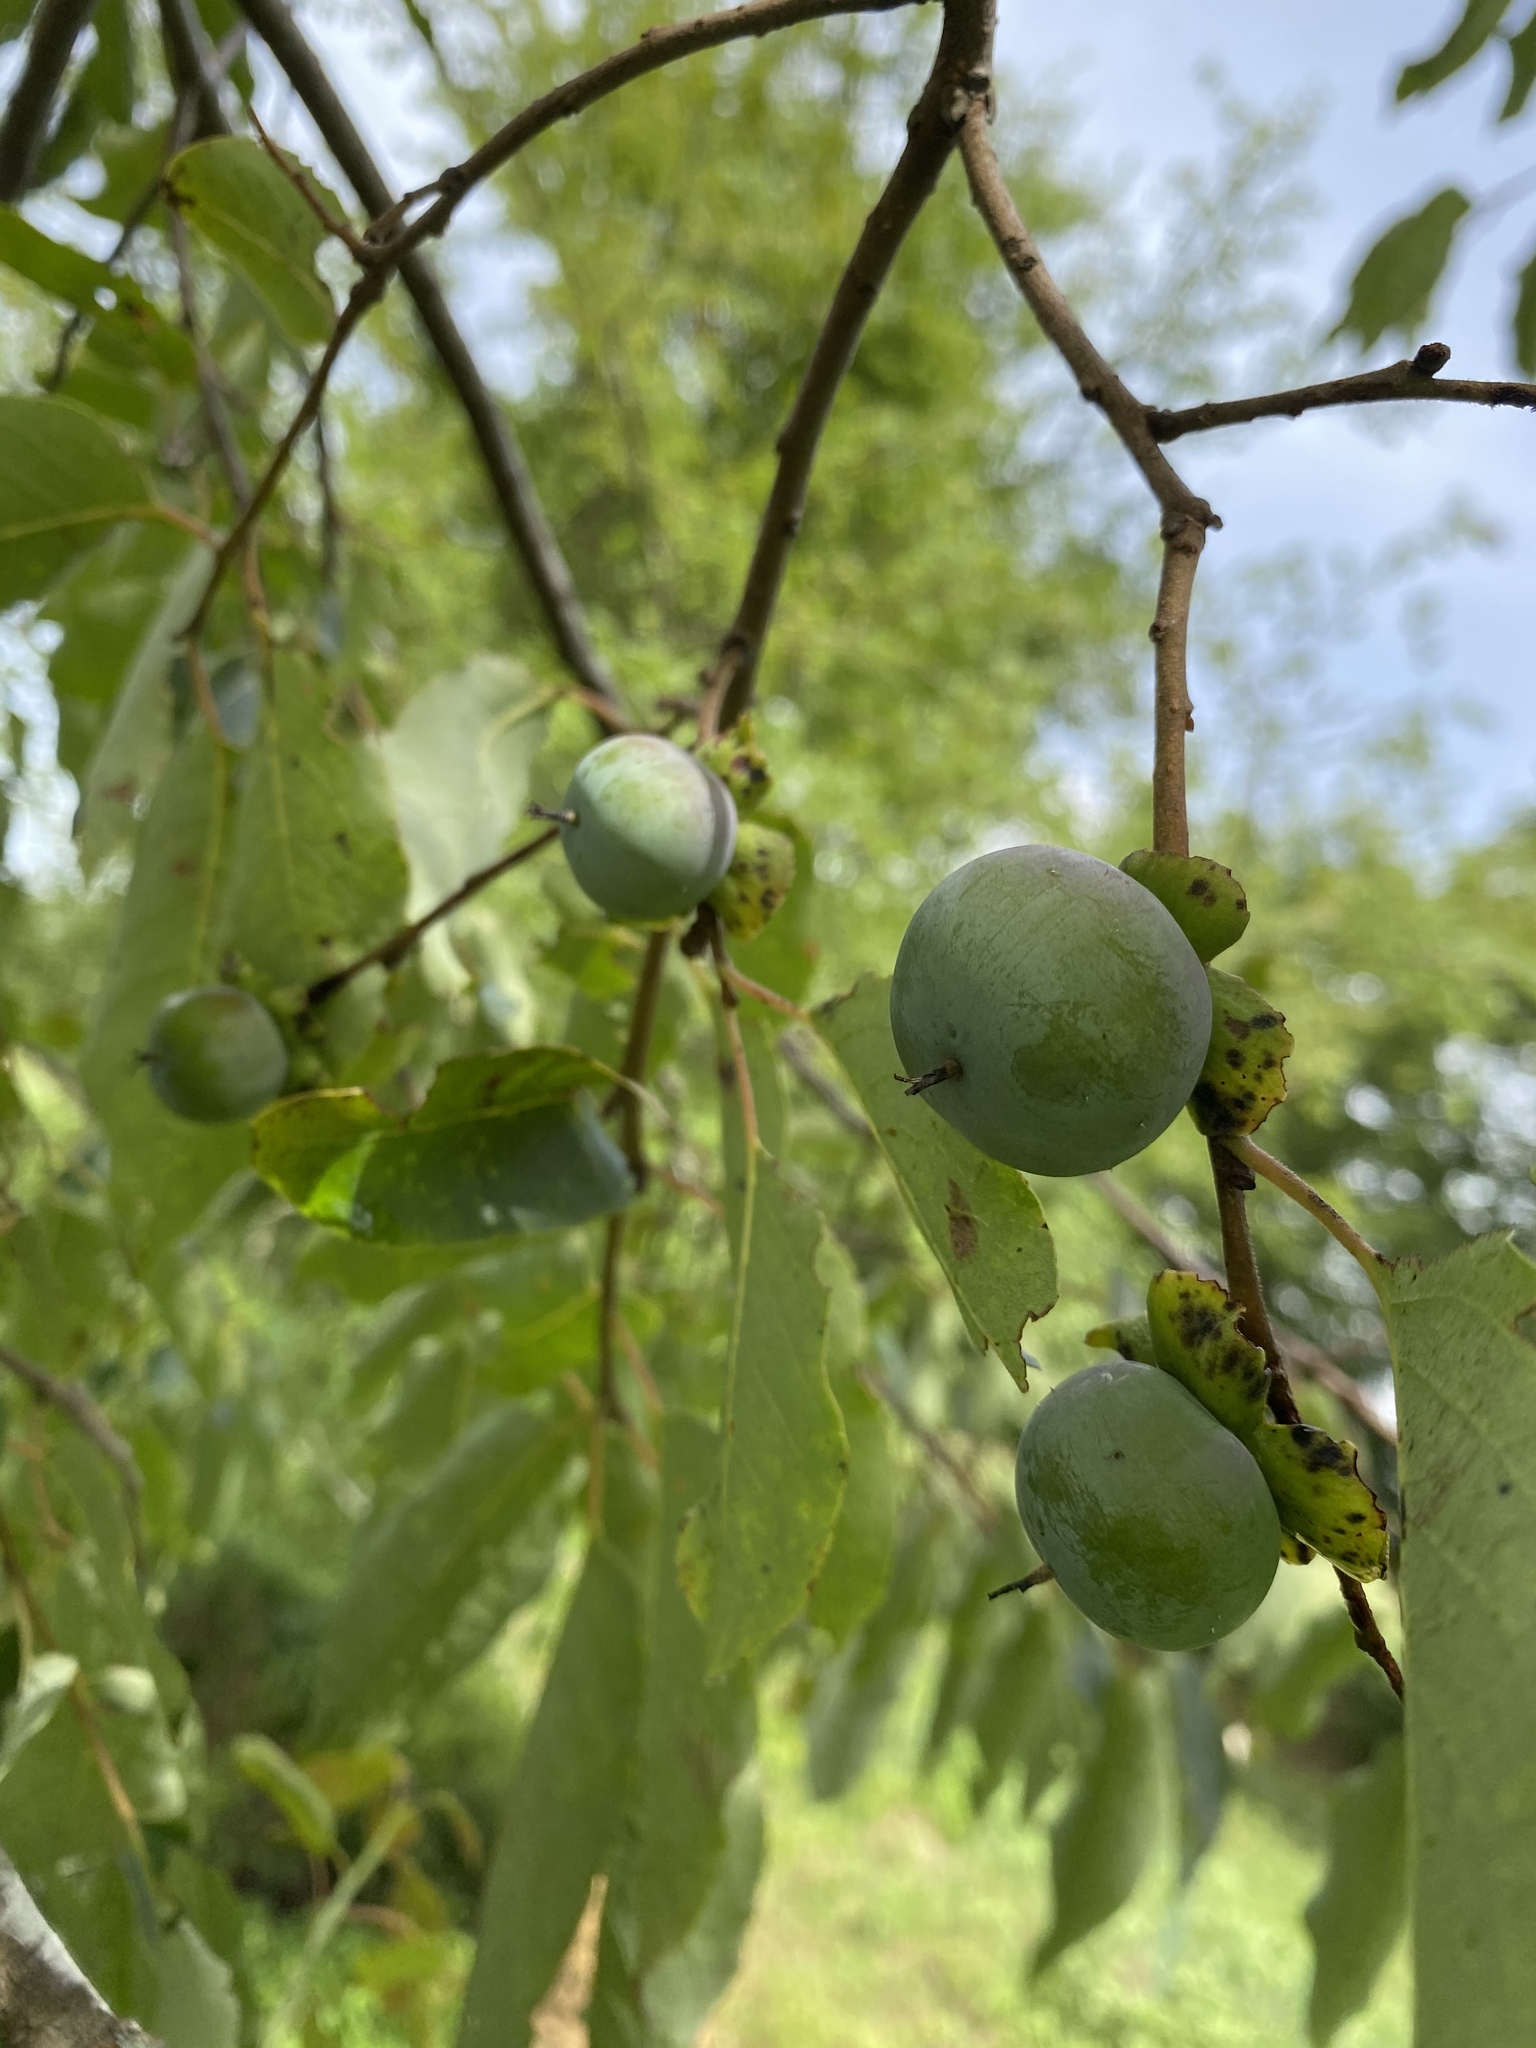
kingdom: Plantae
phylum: Tracheophyta
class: Magnoliopsida
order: Ericales
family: Ebenaceae
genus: Diospyros
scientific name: Diospyros virginiana
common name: Persimmon
